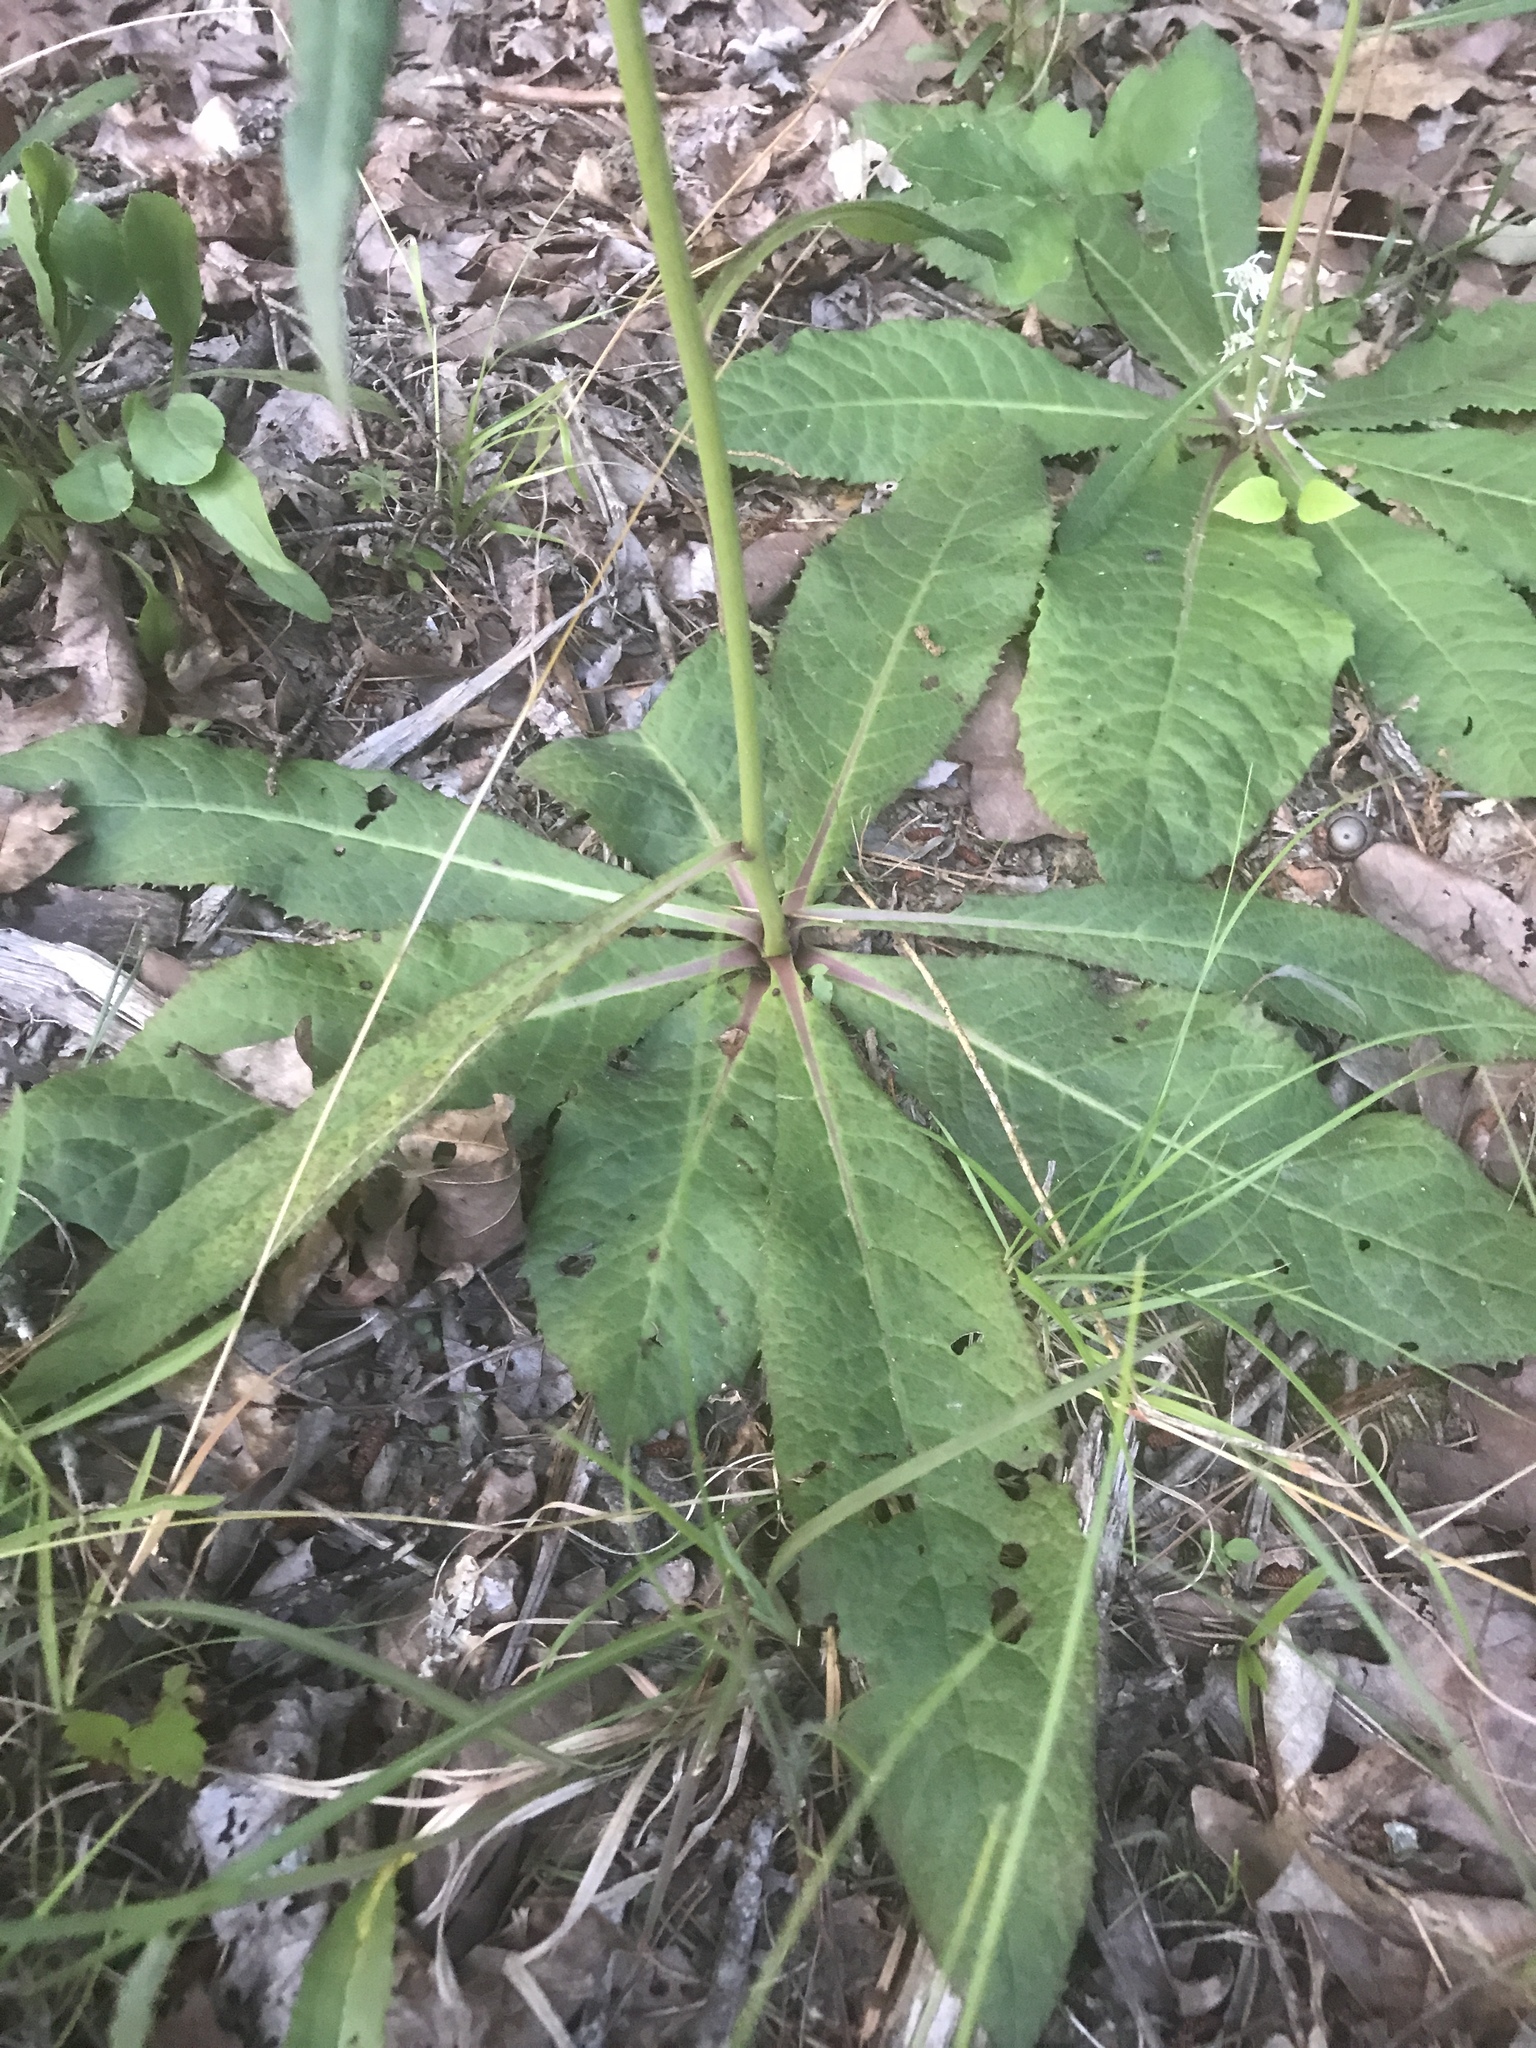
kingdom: Plantae
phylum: Tracheophyta
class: Magnoliopsida
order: Asterales
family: Asteraceae
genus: Vernonia
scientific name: Vernonia acaulis
